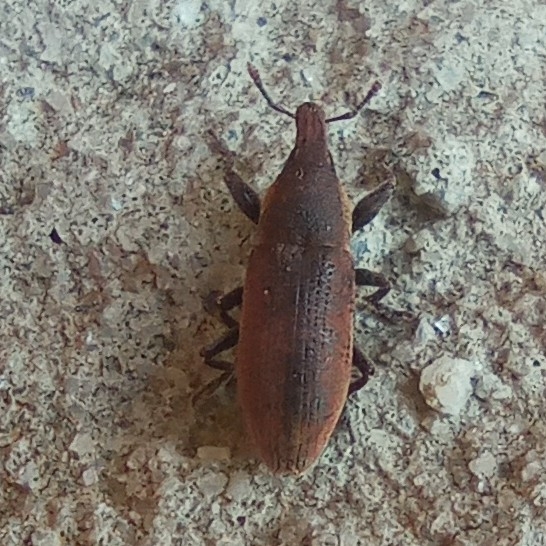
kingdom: Animalia
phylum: Arthropoda
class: Insecta
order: Coleoptera
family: Curculionidae
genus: Lixus
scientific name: Lixus angustus
